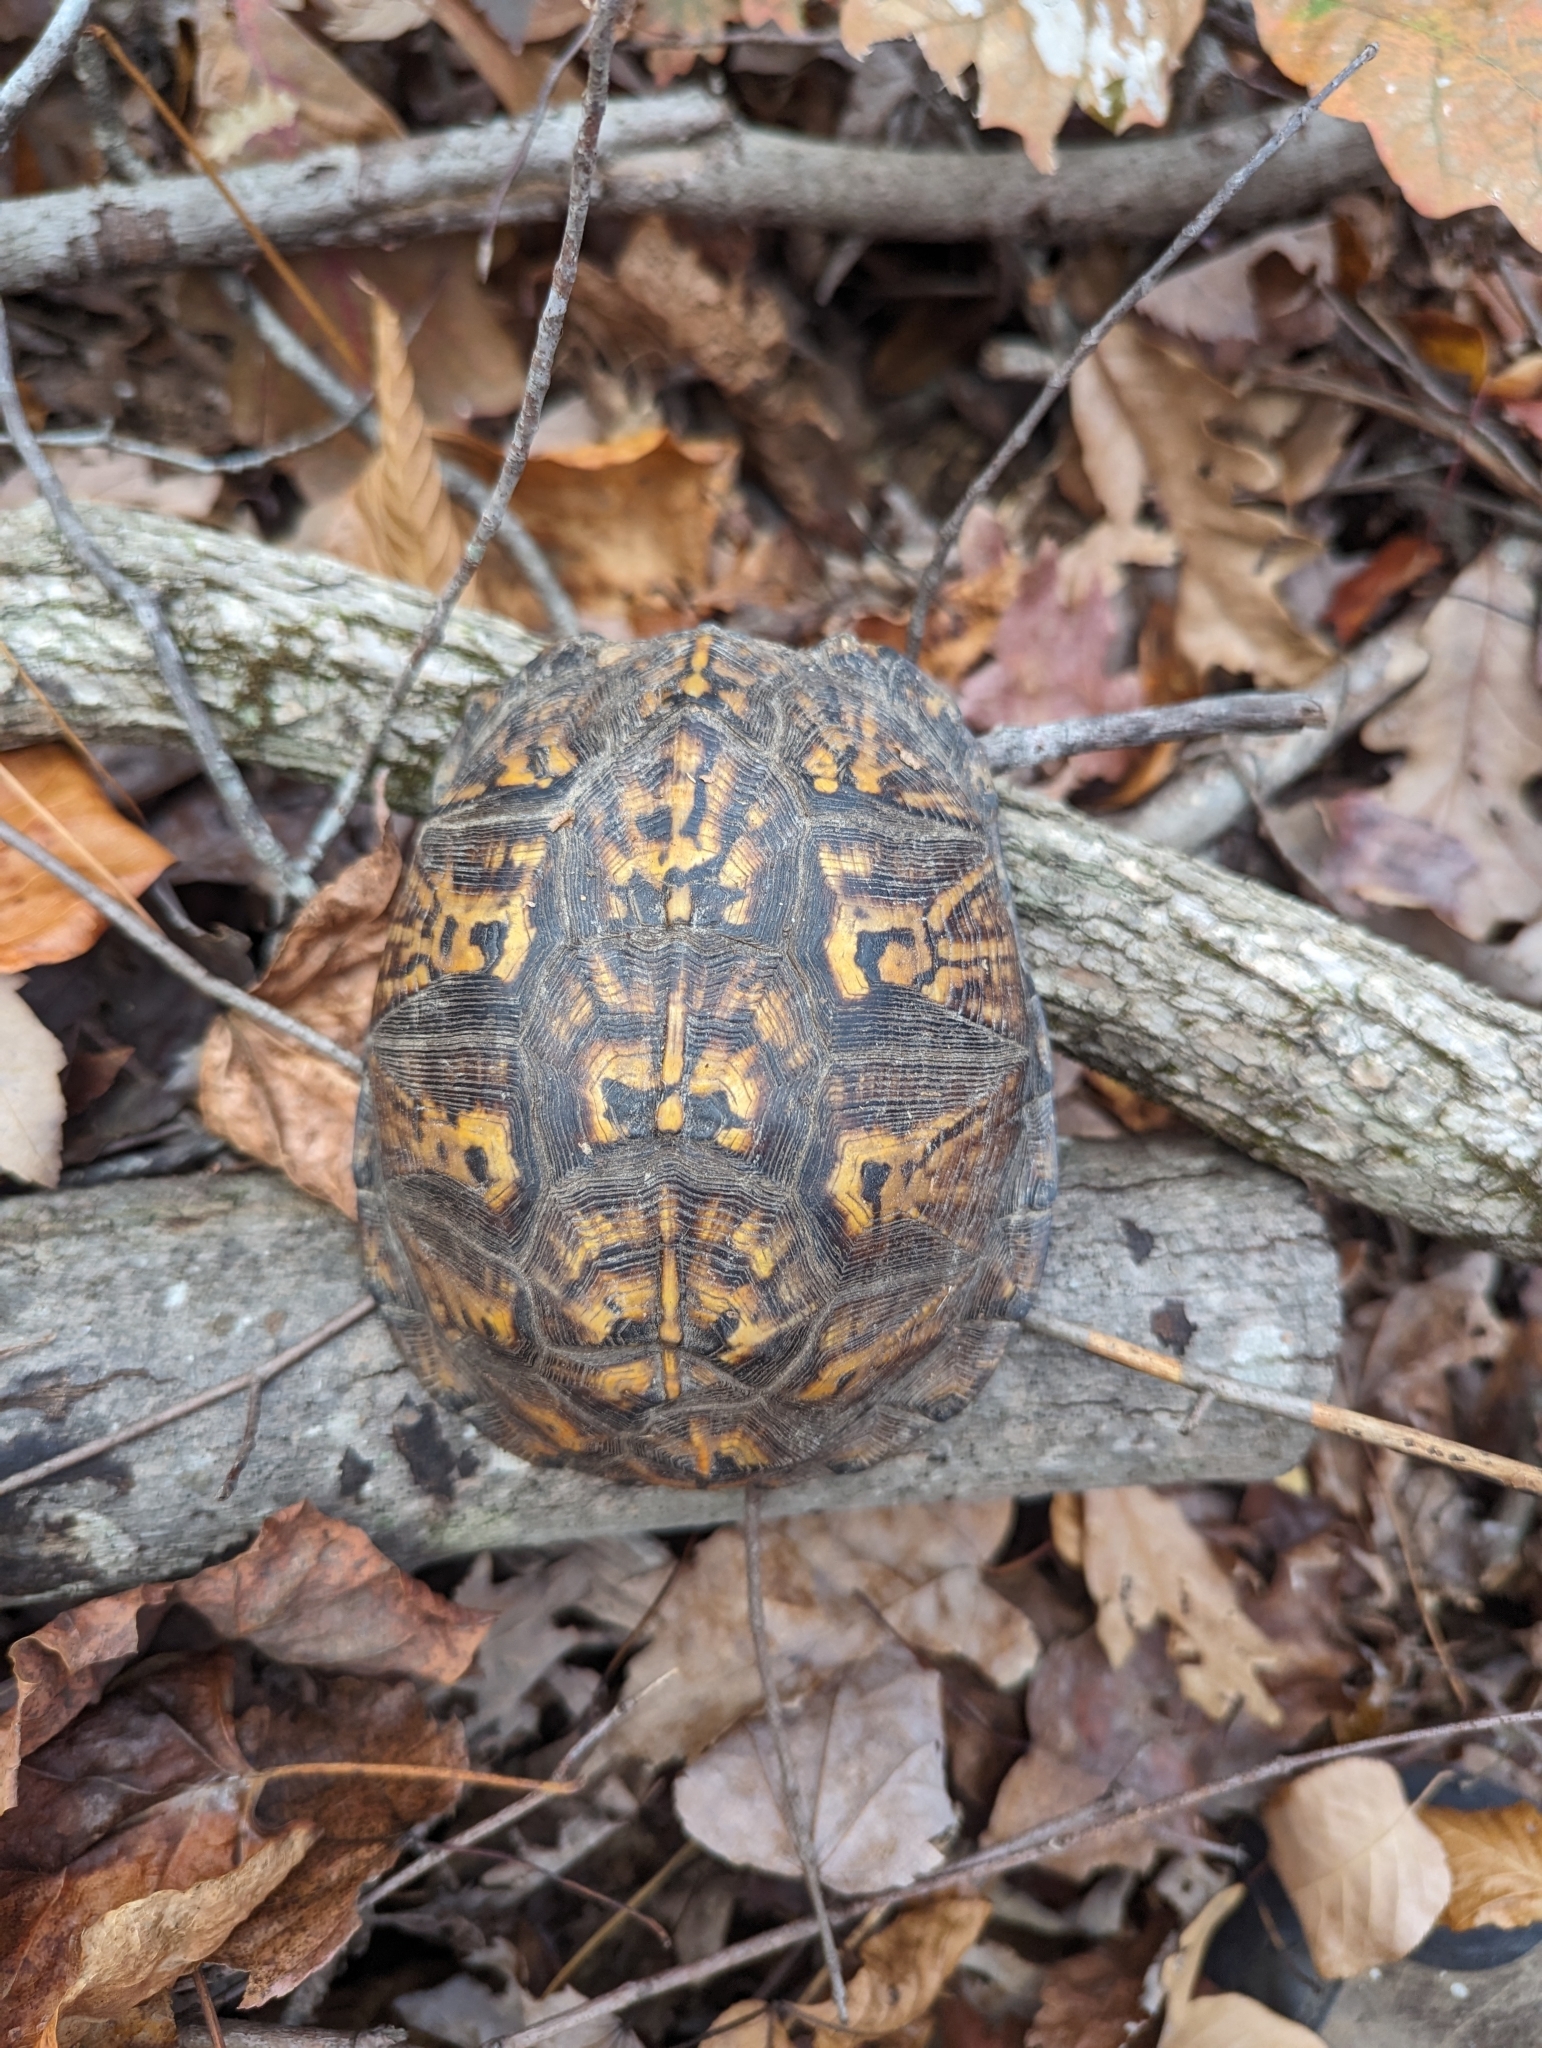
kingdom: Animalia
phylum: Chordata
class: Testudines
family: Emydidae
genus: Terrapene
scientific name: Terrapene carolina
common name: Common box turtle
